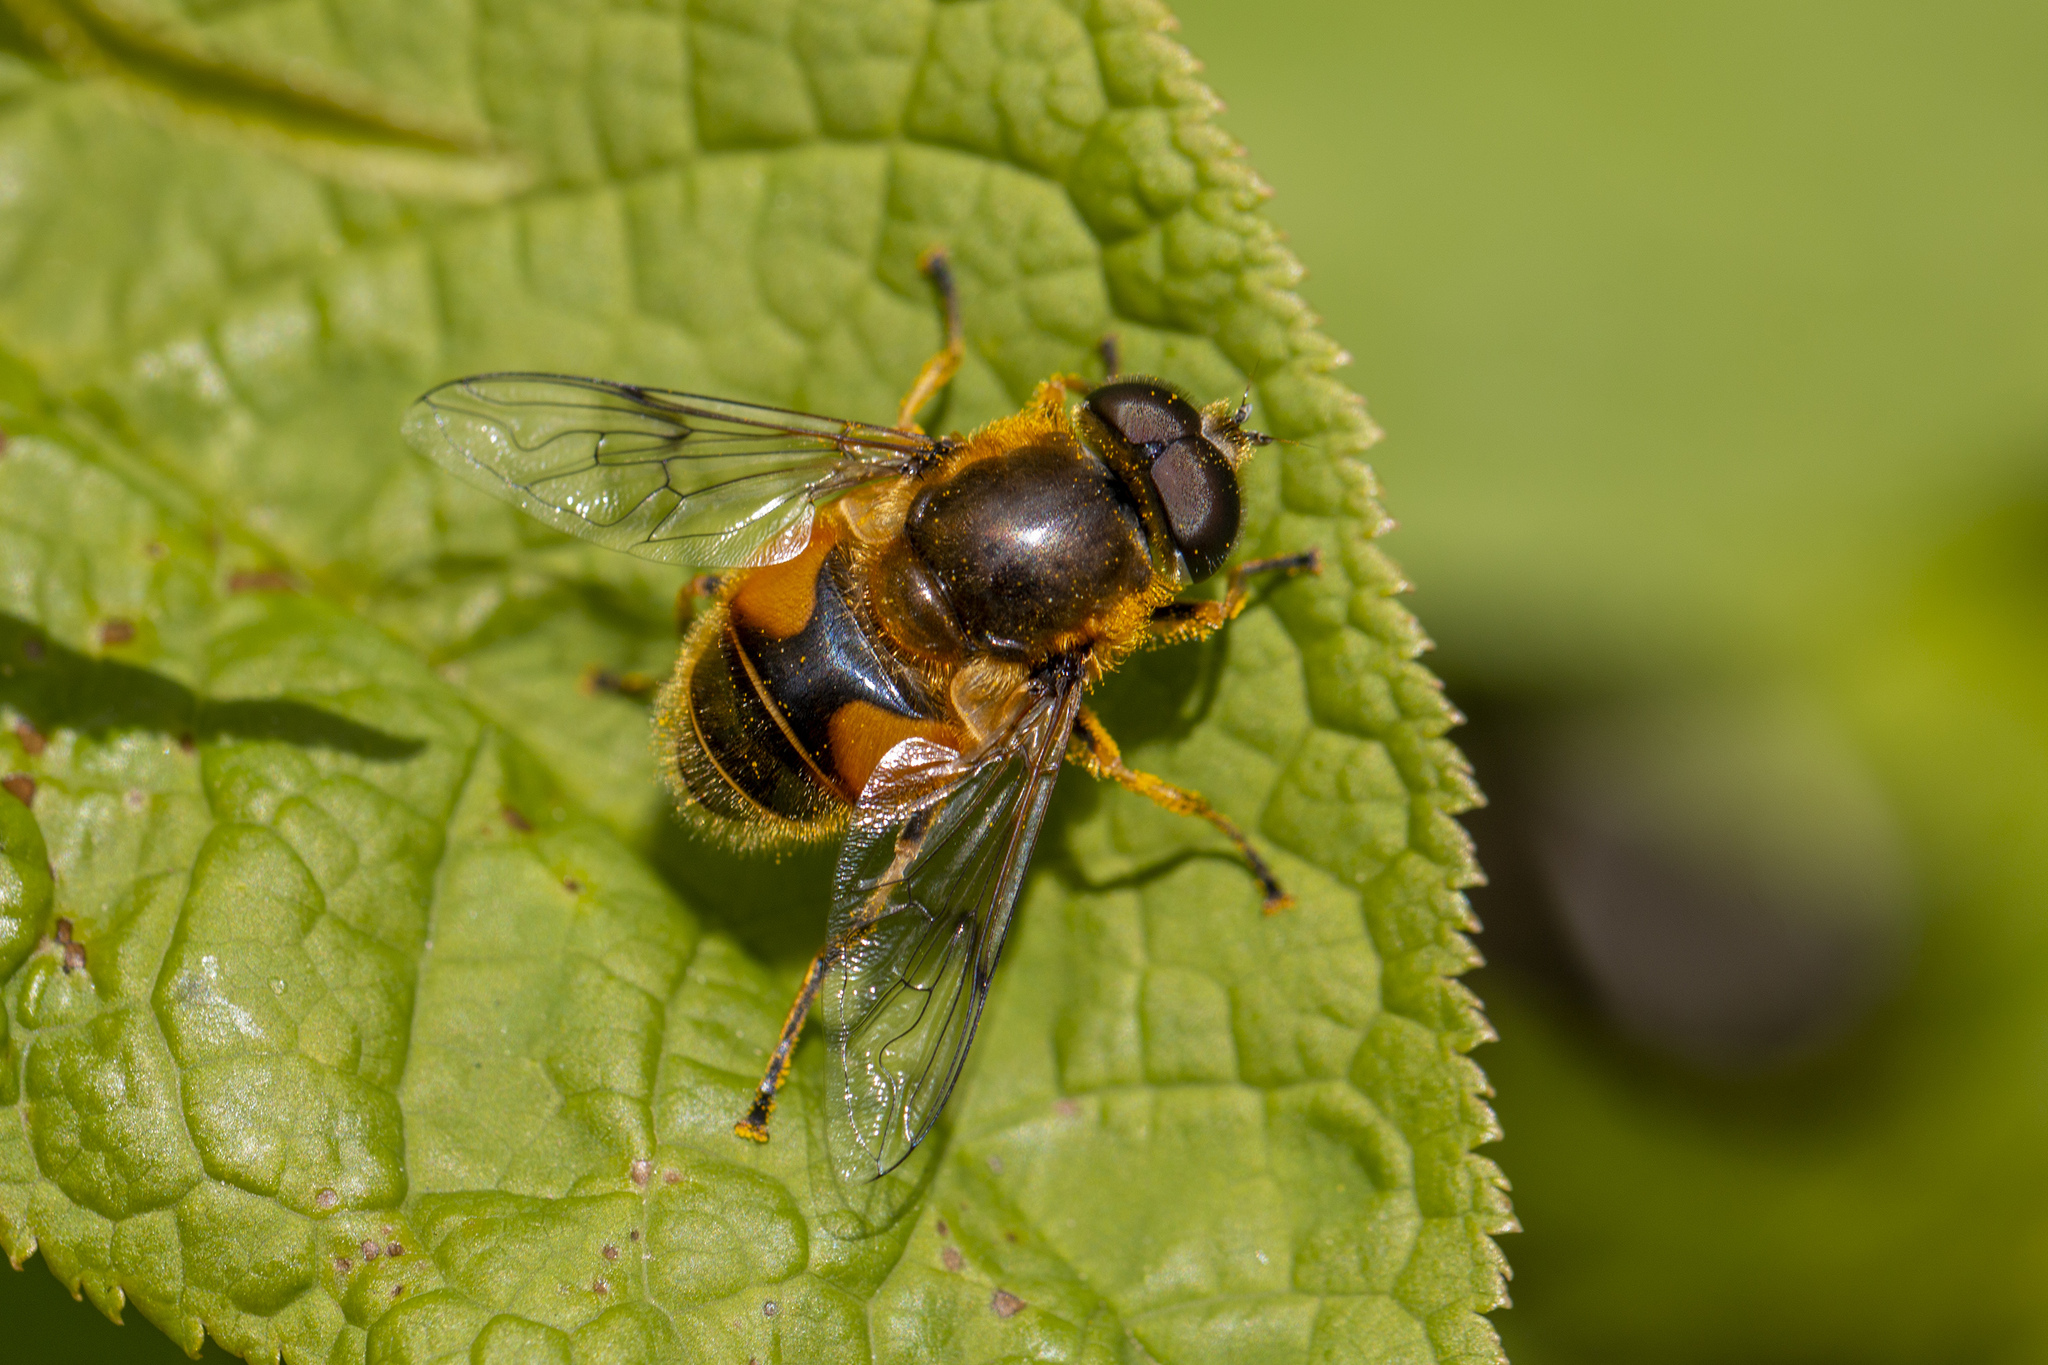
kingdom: Animalia
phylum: Arthropoda
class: Insecta
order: Diptera
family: Syrphidae
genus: Cheilosia
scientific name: Cheilosia morio
